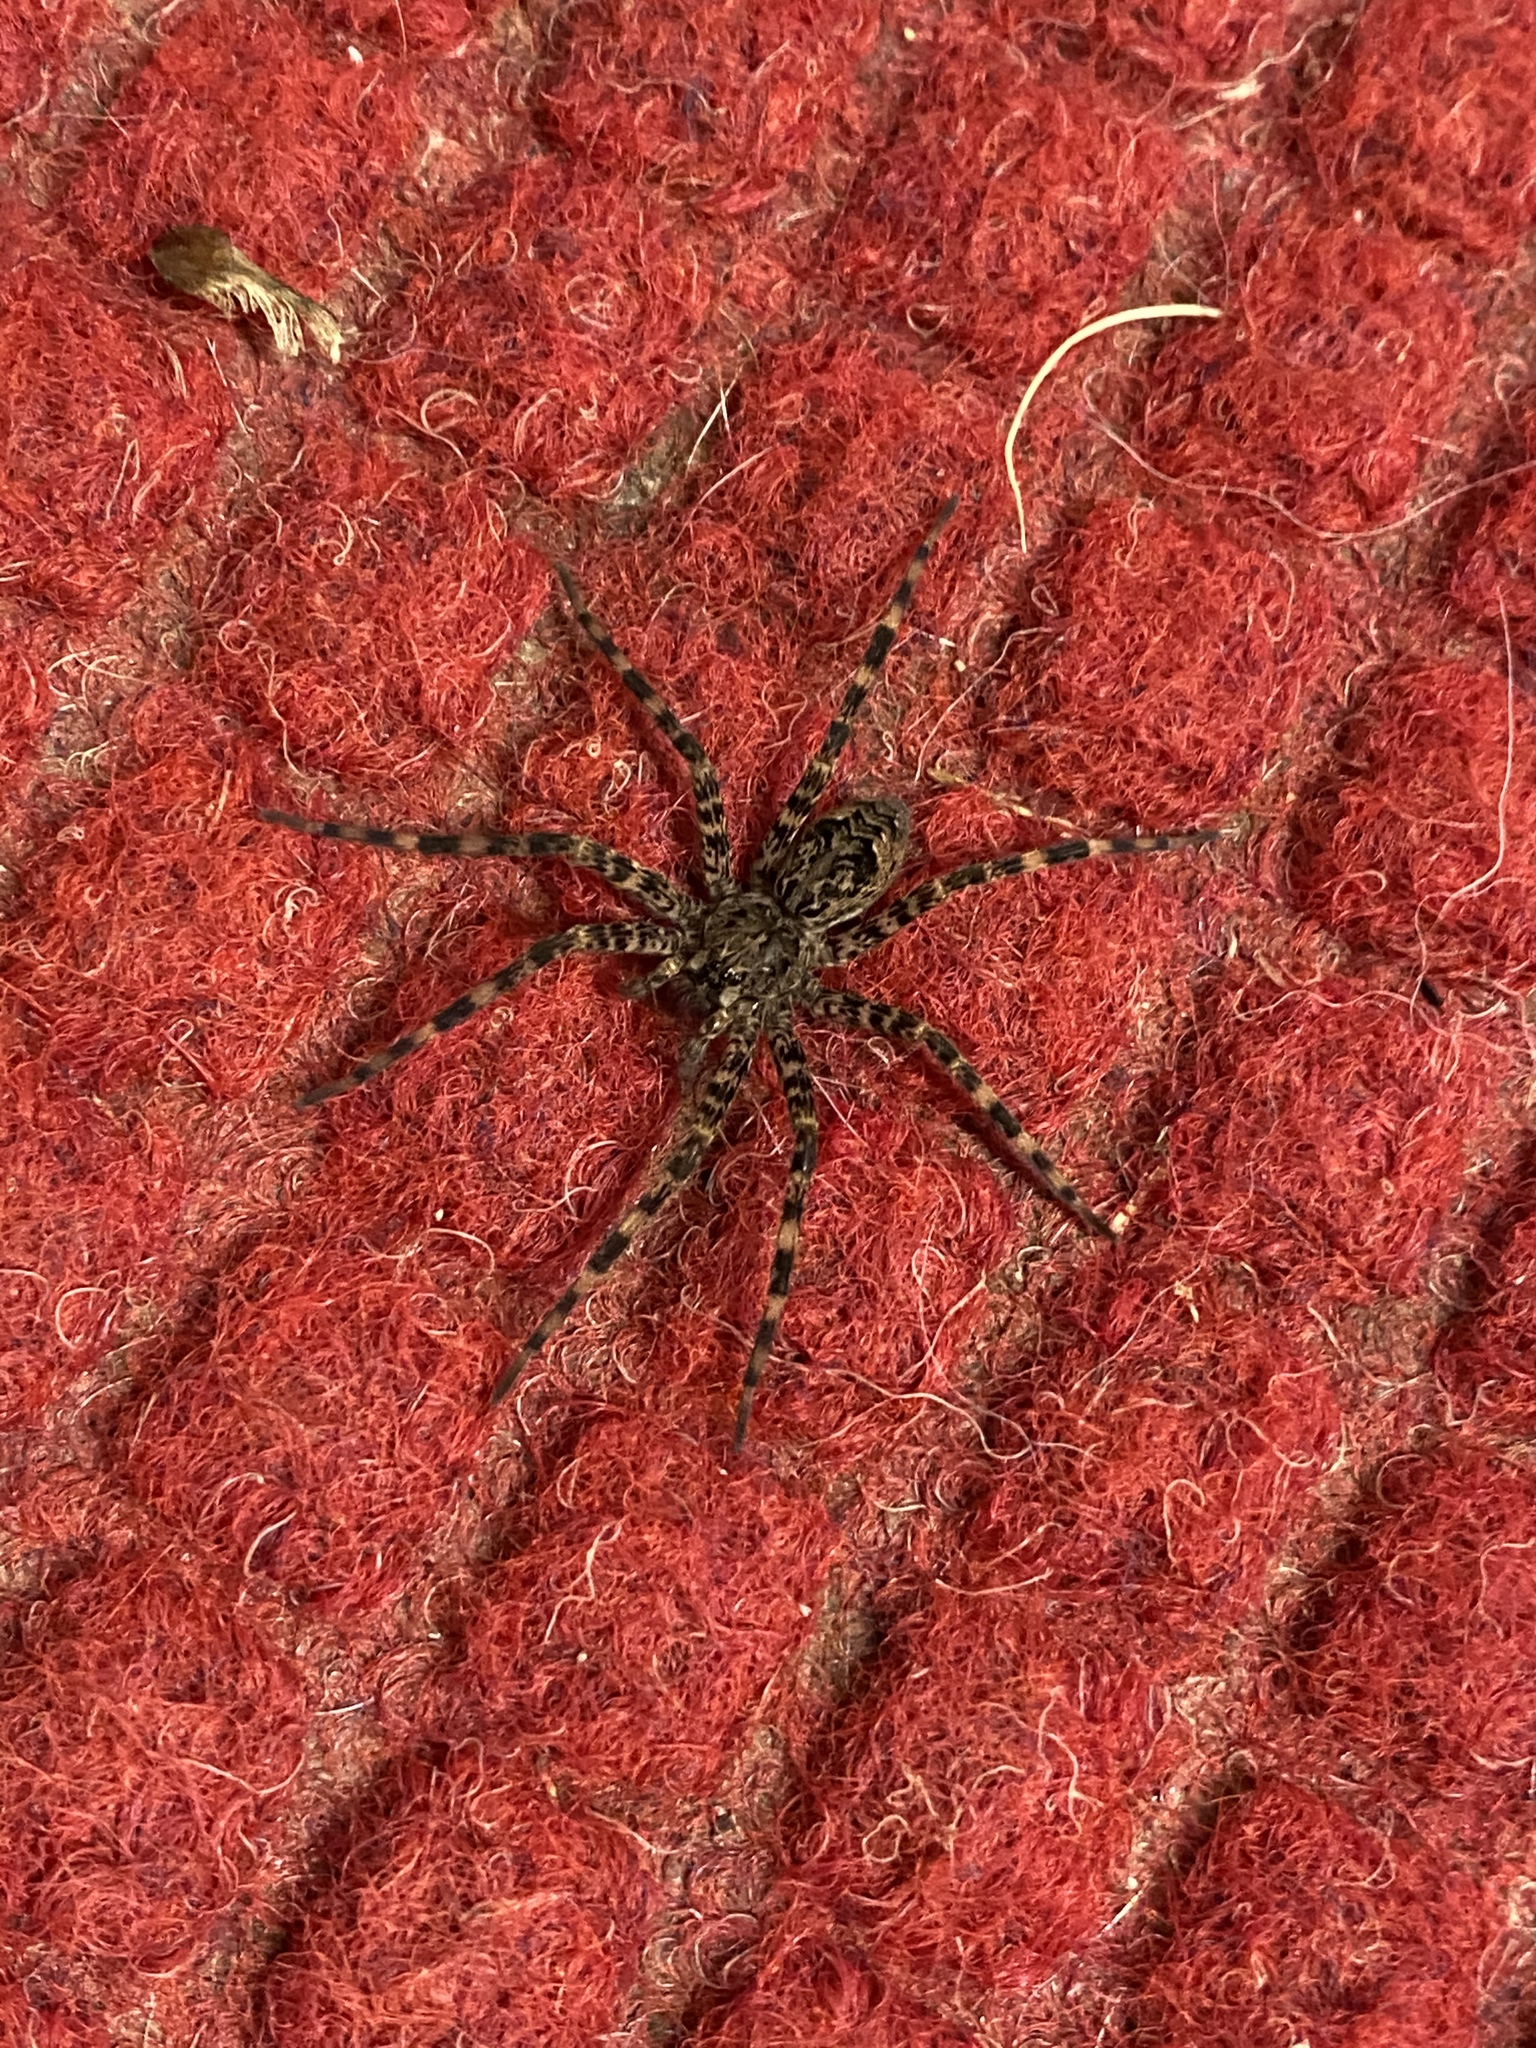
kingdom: Animalia
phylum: Arthropoda
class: Arachnida
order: Araneae
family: Pisauridae
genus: Dolomedes
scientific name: Dolomedes tenebrosus
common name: Dark fishing spider
